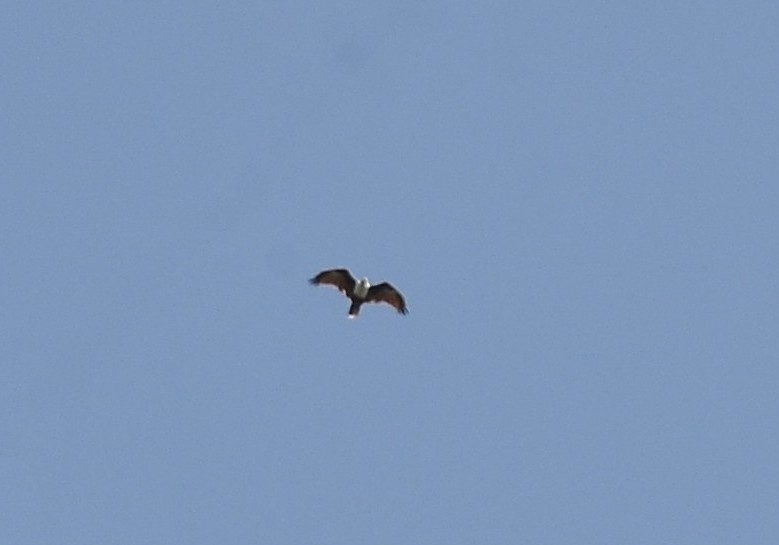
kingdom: Animalia
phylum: Chordata
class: Aves
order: Accipitriformes
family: Accipitridae
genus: Haliastur
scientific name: Haliastur indus
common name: Brahminy kite
